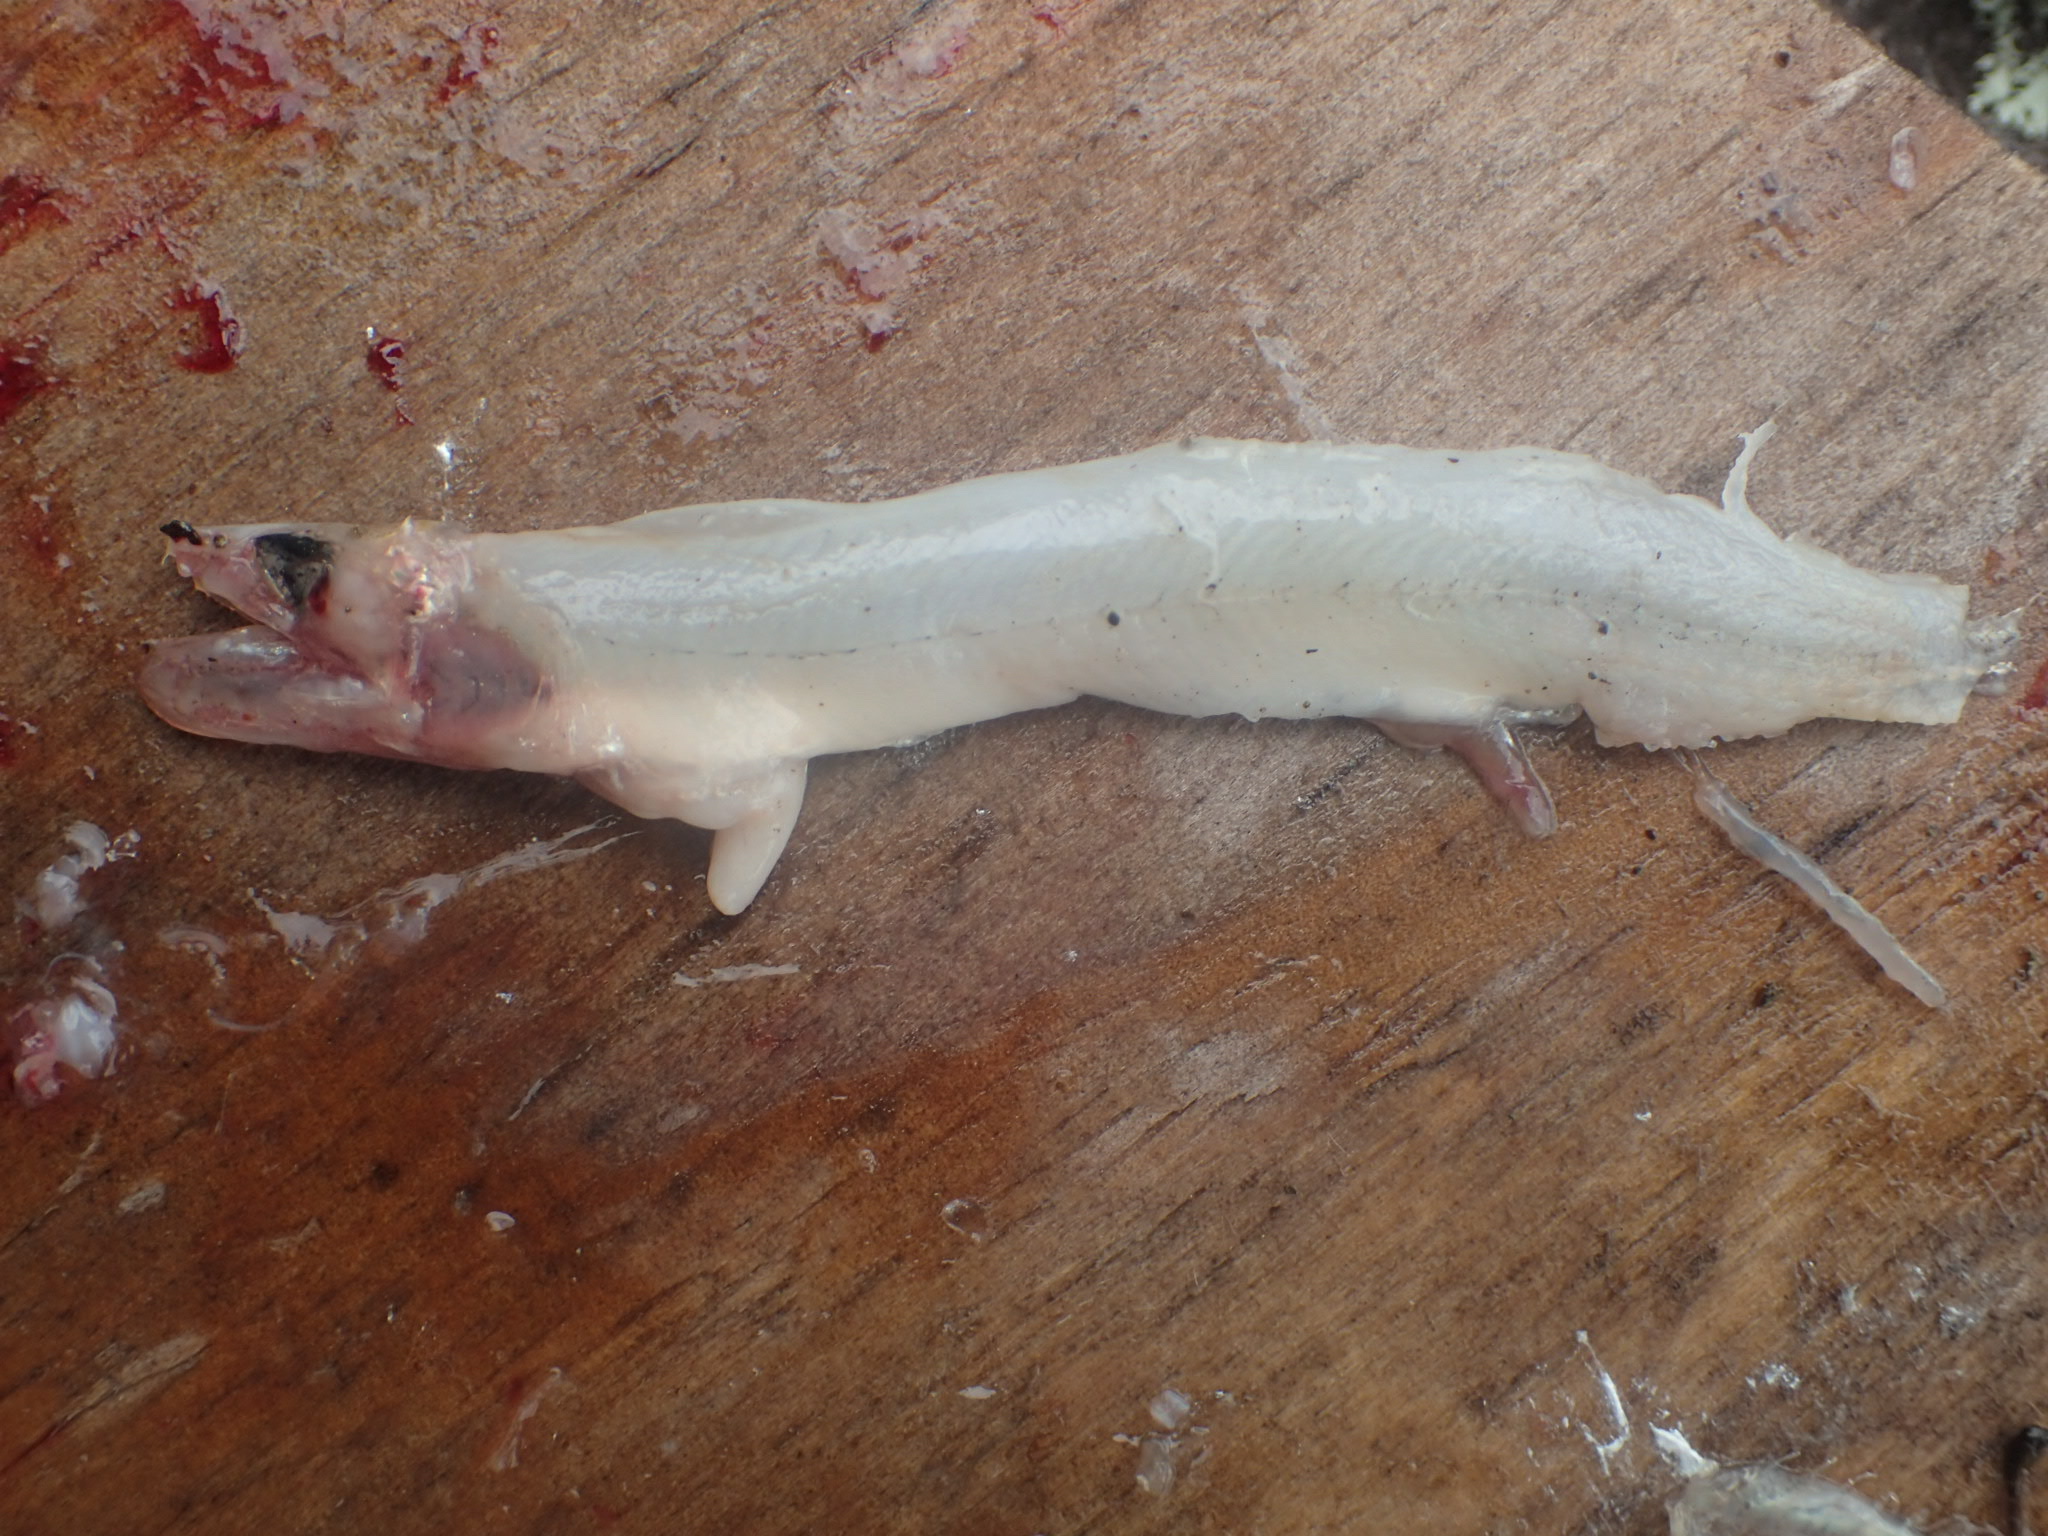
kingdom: Animalia
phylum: Chordata
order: Osmeriformes
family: Osmeridae
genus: Osmerus
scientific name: Osmerus mordax
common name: Rainbow smelt
